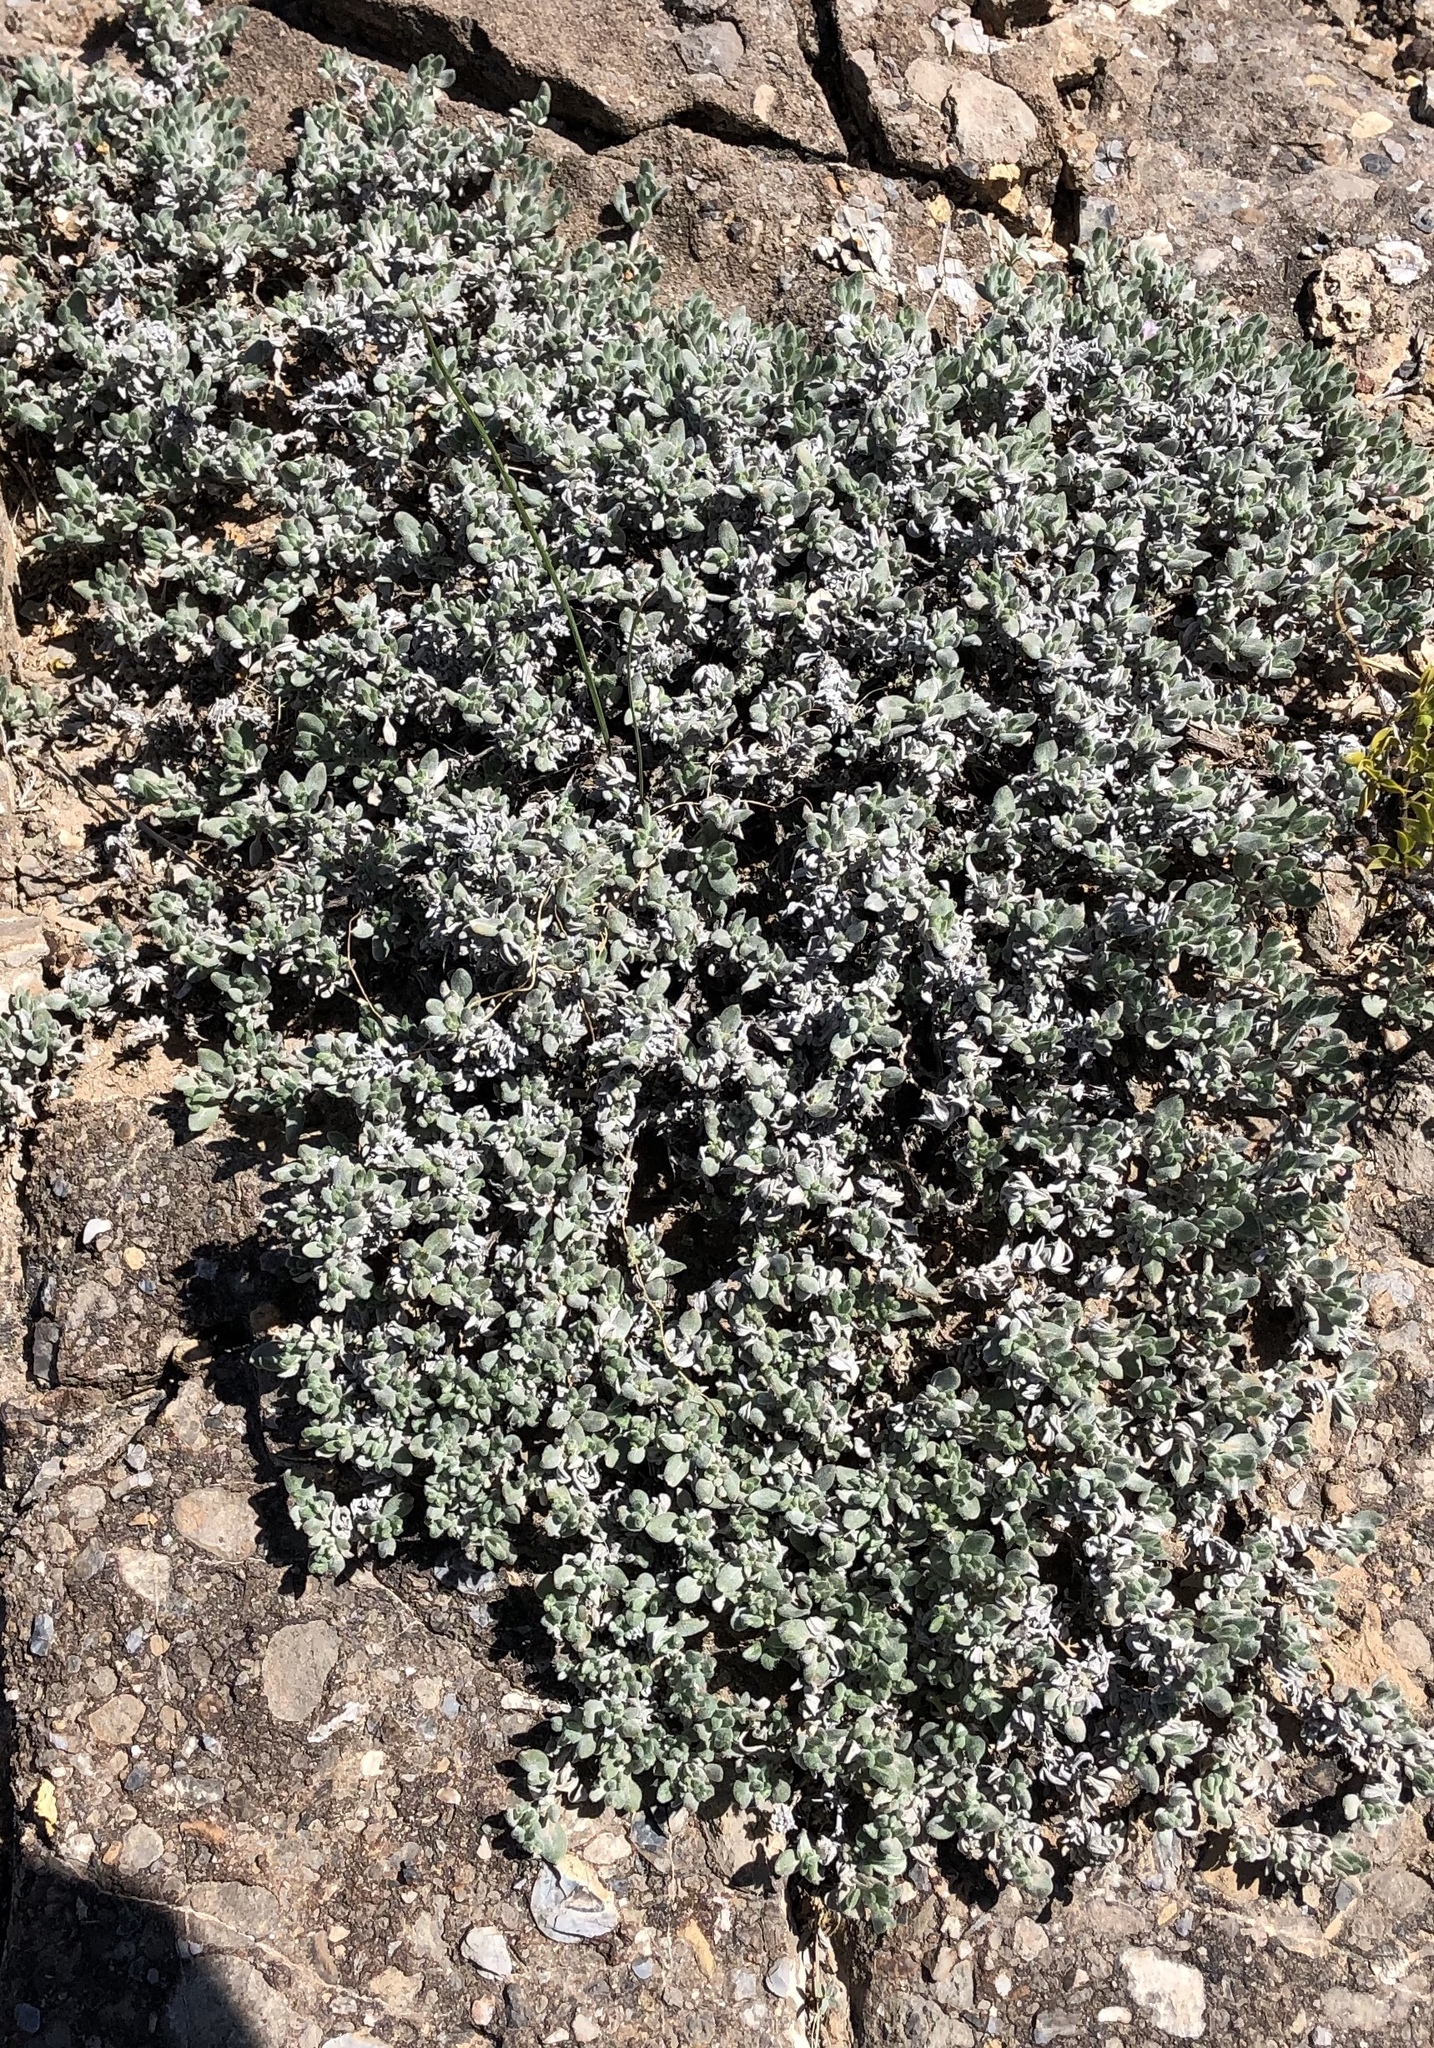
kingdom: Plantae
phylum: Tracheophyta
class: Magnoliopsida
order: Boraginales
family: Ehretiaceae
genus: Tiquilia
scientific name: Tiquilia canescens
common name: Hairy tiquilia
